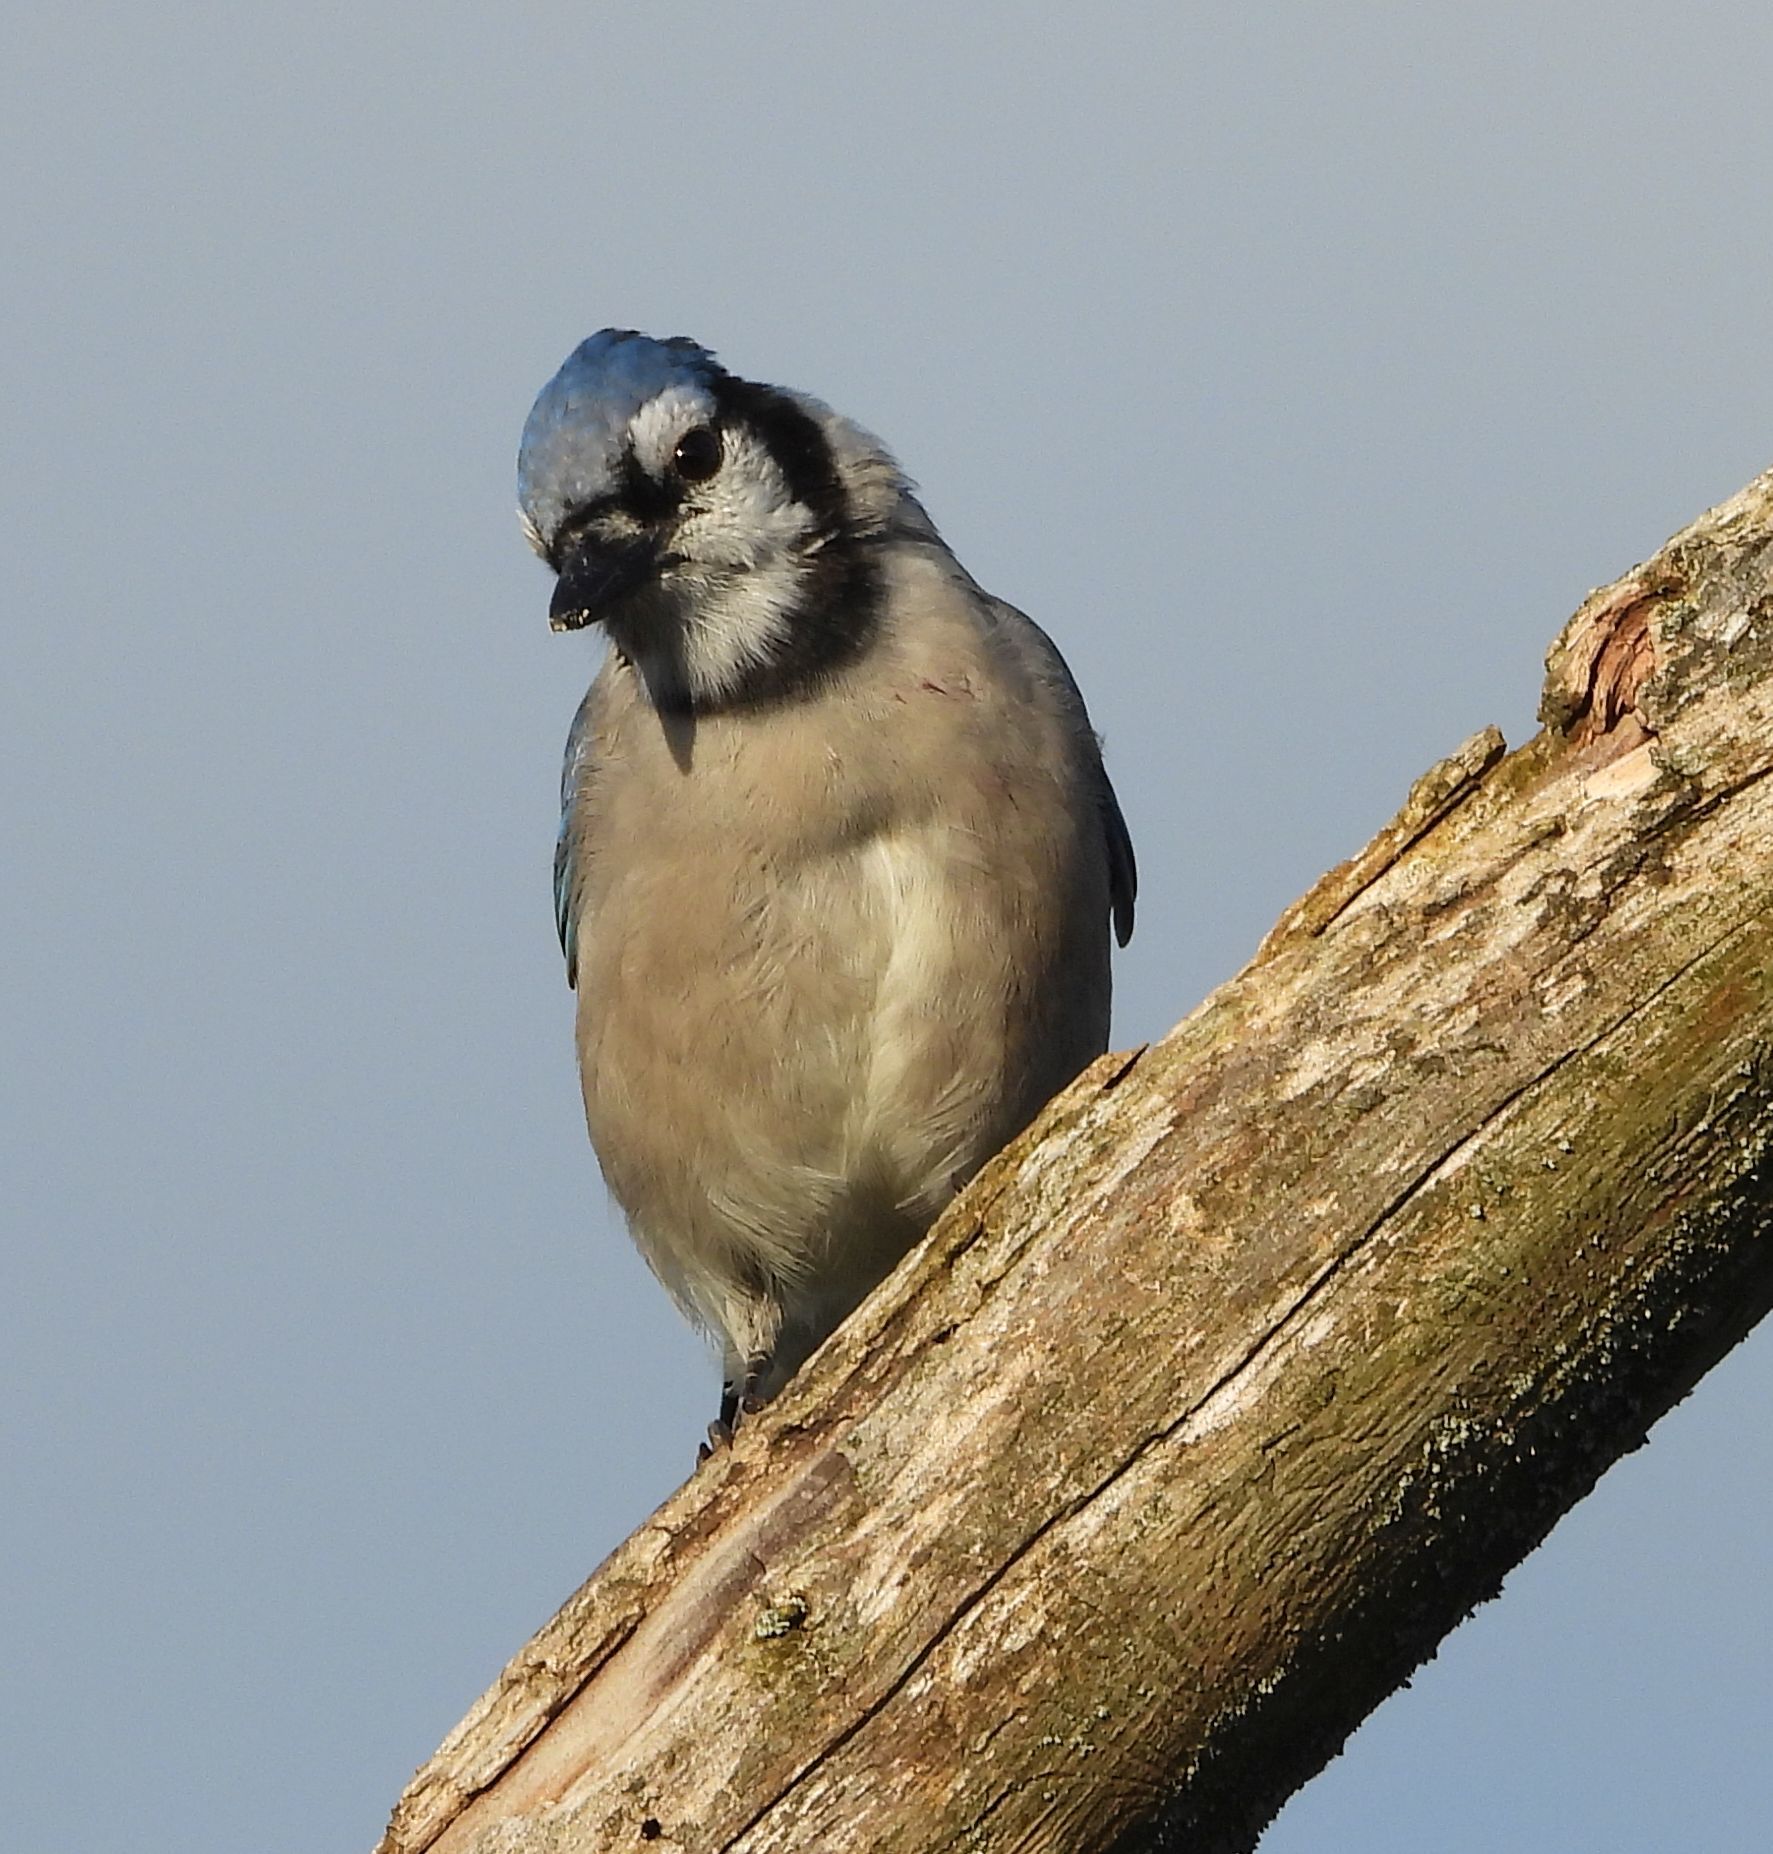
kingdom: Animalia
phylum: Chordata
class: Aves
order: Passeriformes
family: Corvidae
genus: Cyanocitta
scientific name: Cyanocitta cristata
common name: Blue jay
